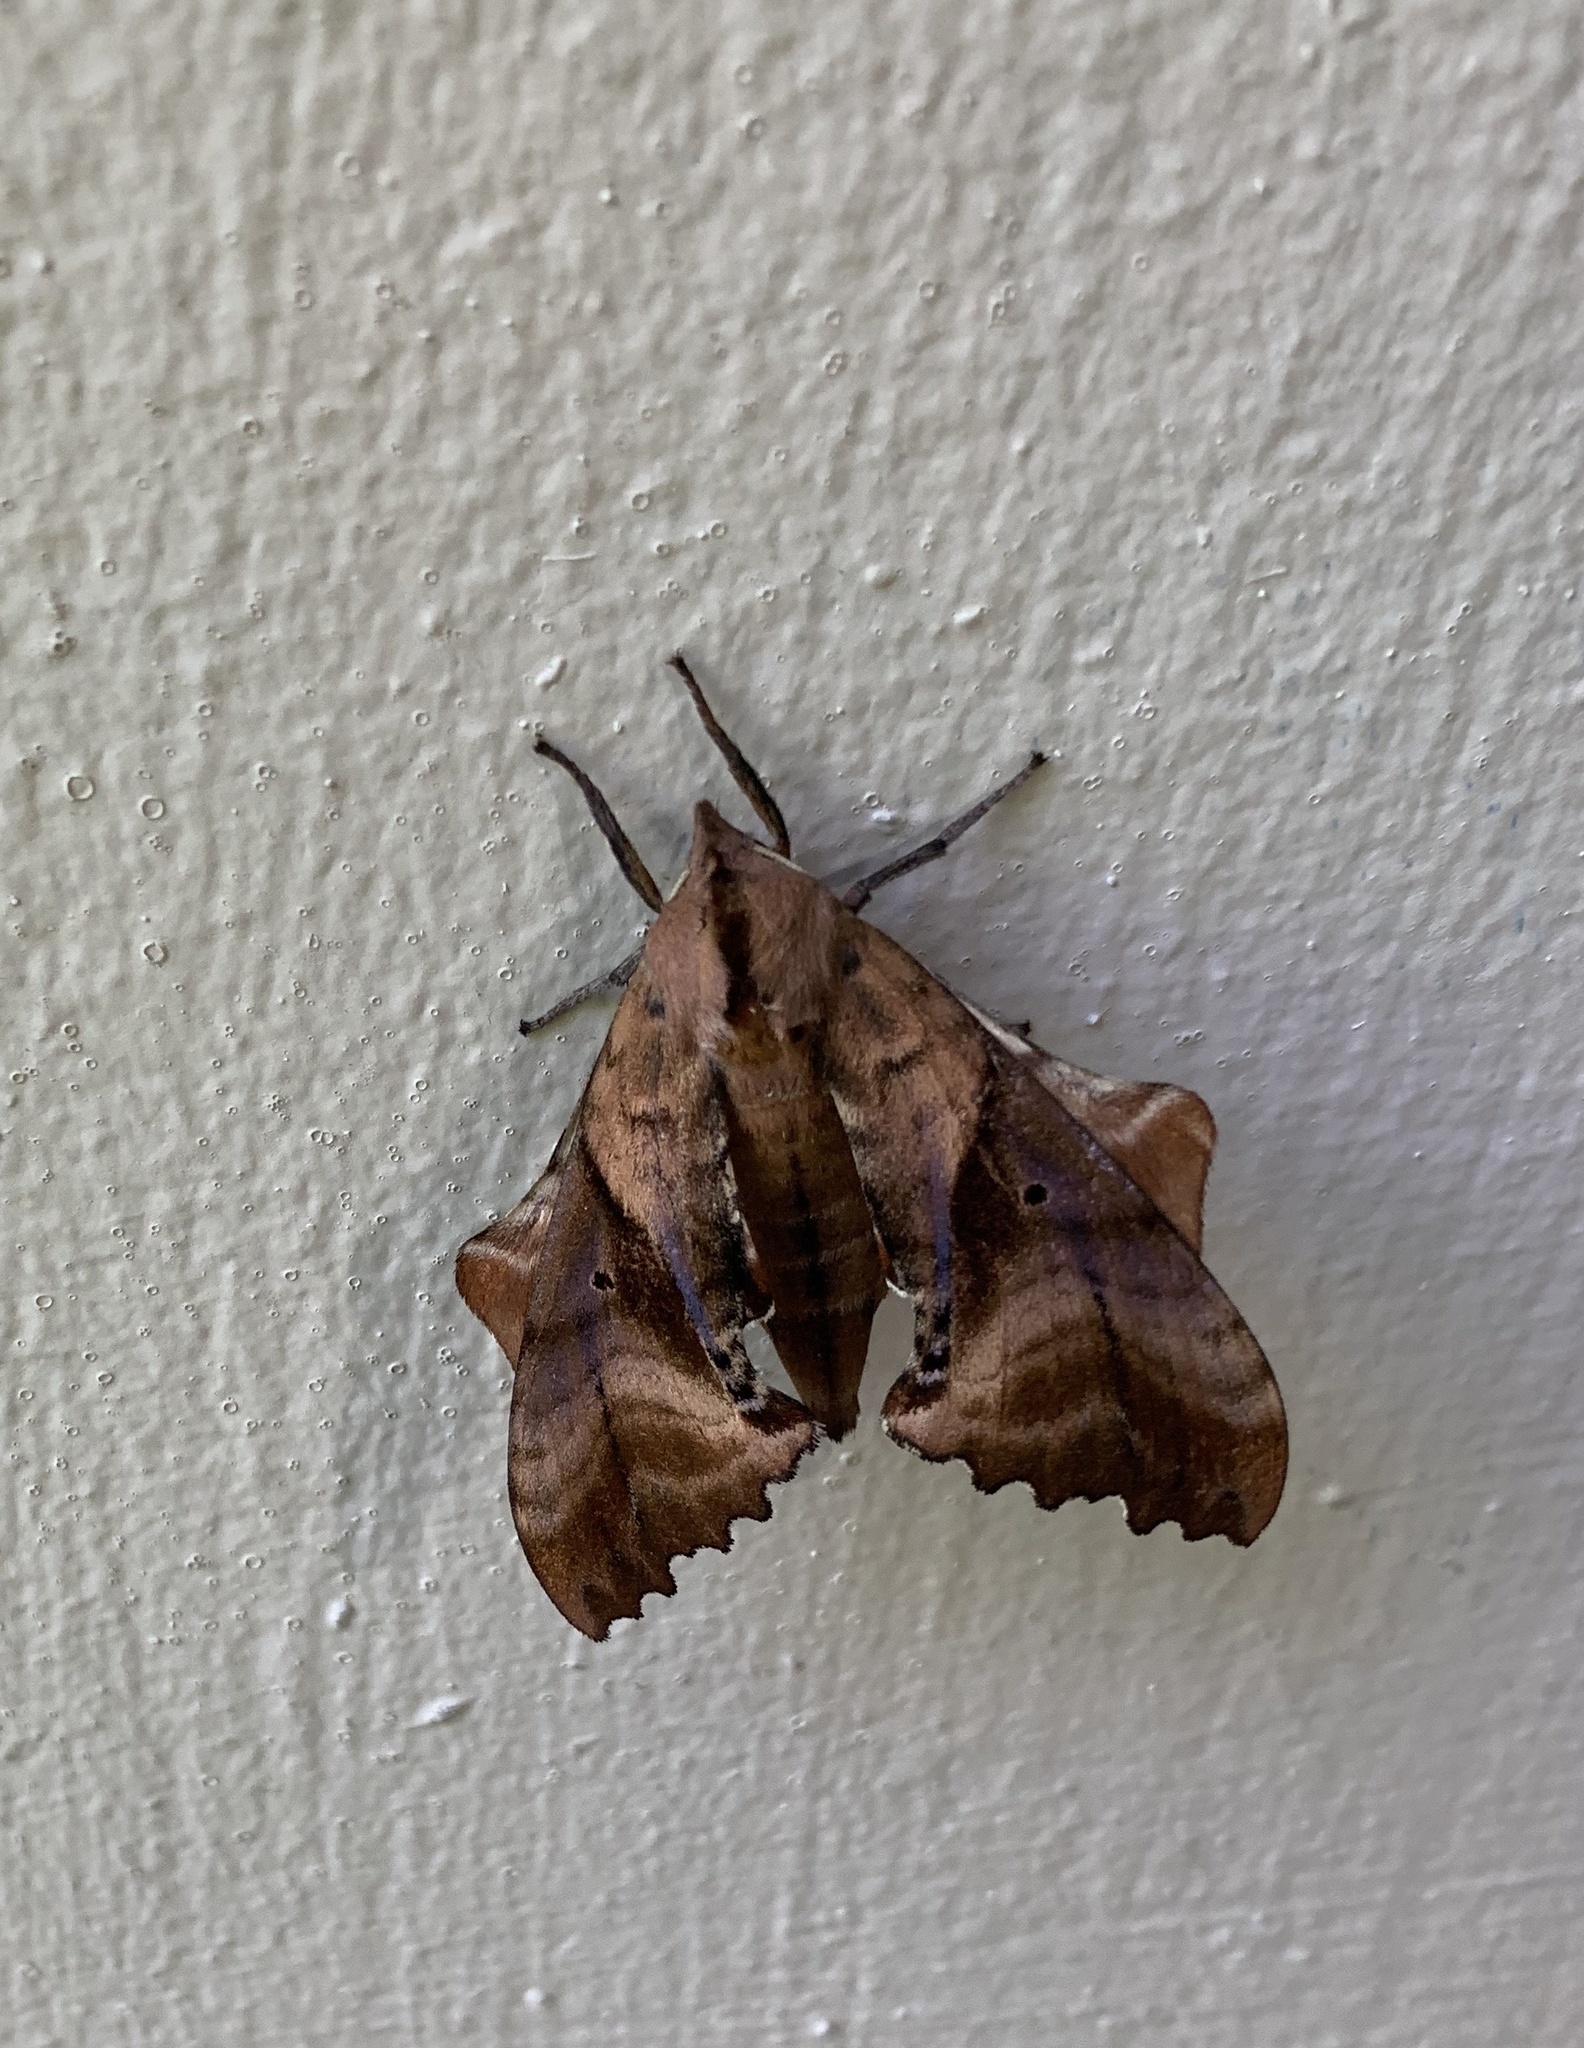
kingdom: Animalia
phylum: Arthropoda
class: Insecta
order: Lepidoptera
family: Sphingidae
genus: Paonias
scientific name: Paonias excaecata
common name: Blind-eyed sphinx
